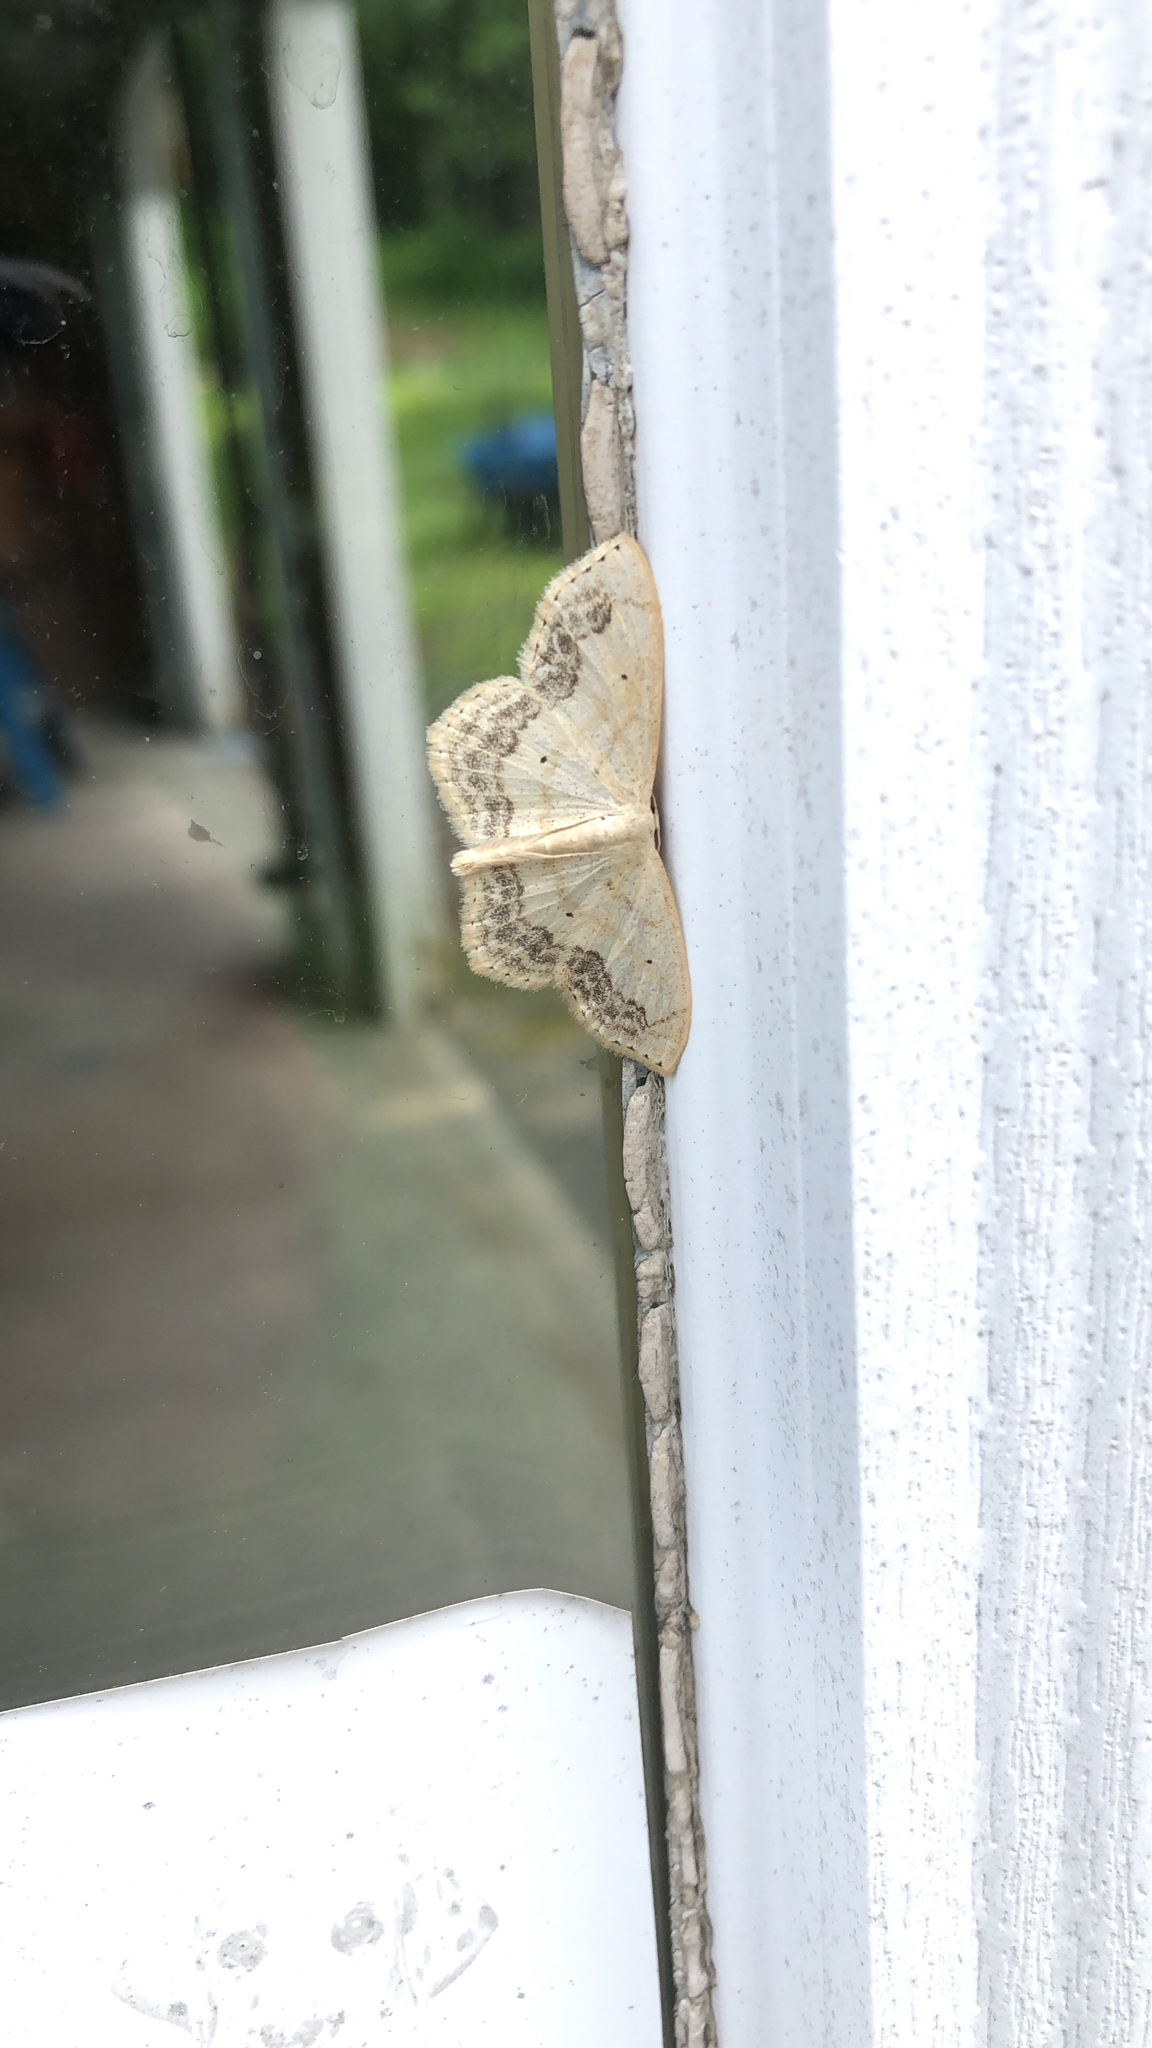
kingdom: Animalia
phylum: Arthropoda
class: Insecta
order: Lepidoptera
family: Geometridae
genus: Scopula
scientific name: Scopula limboundata
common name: Large lace border
